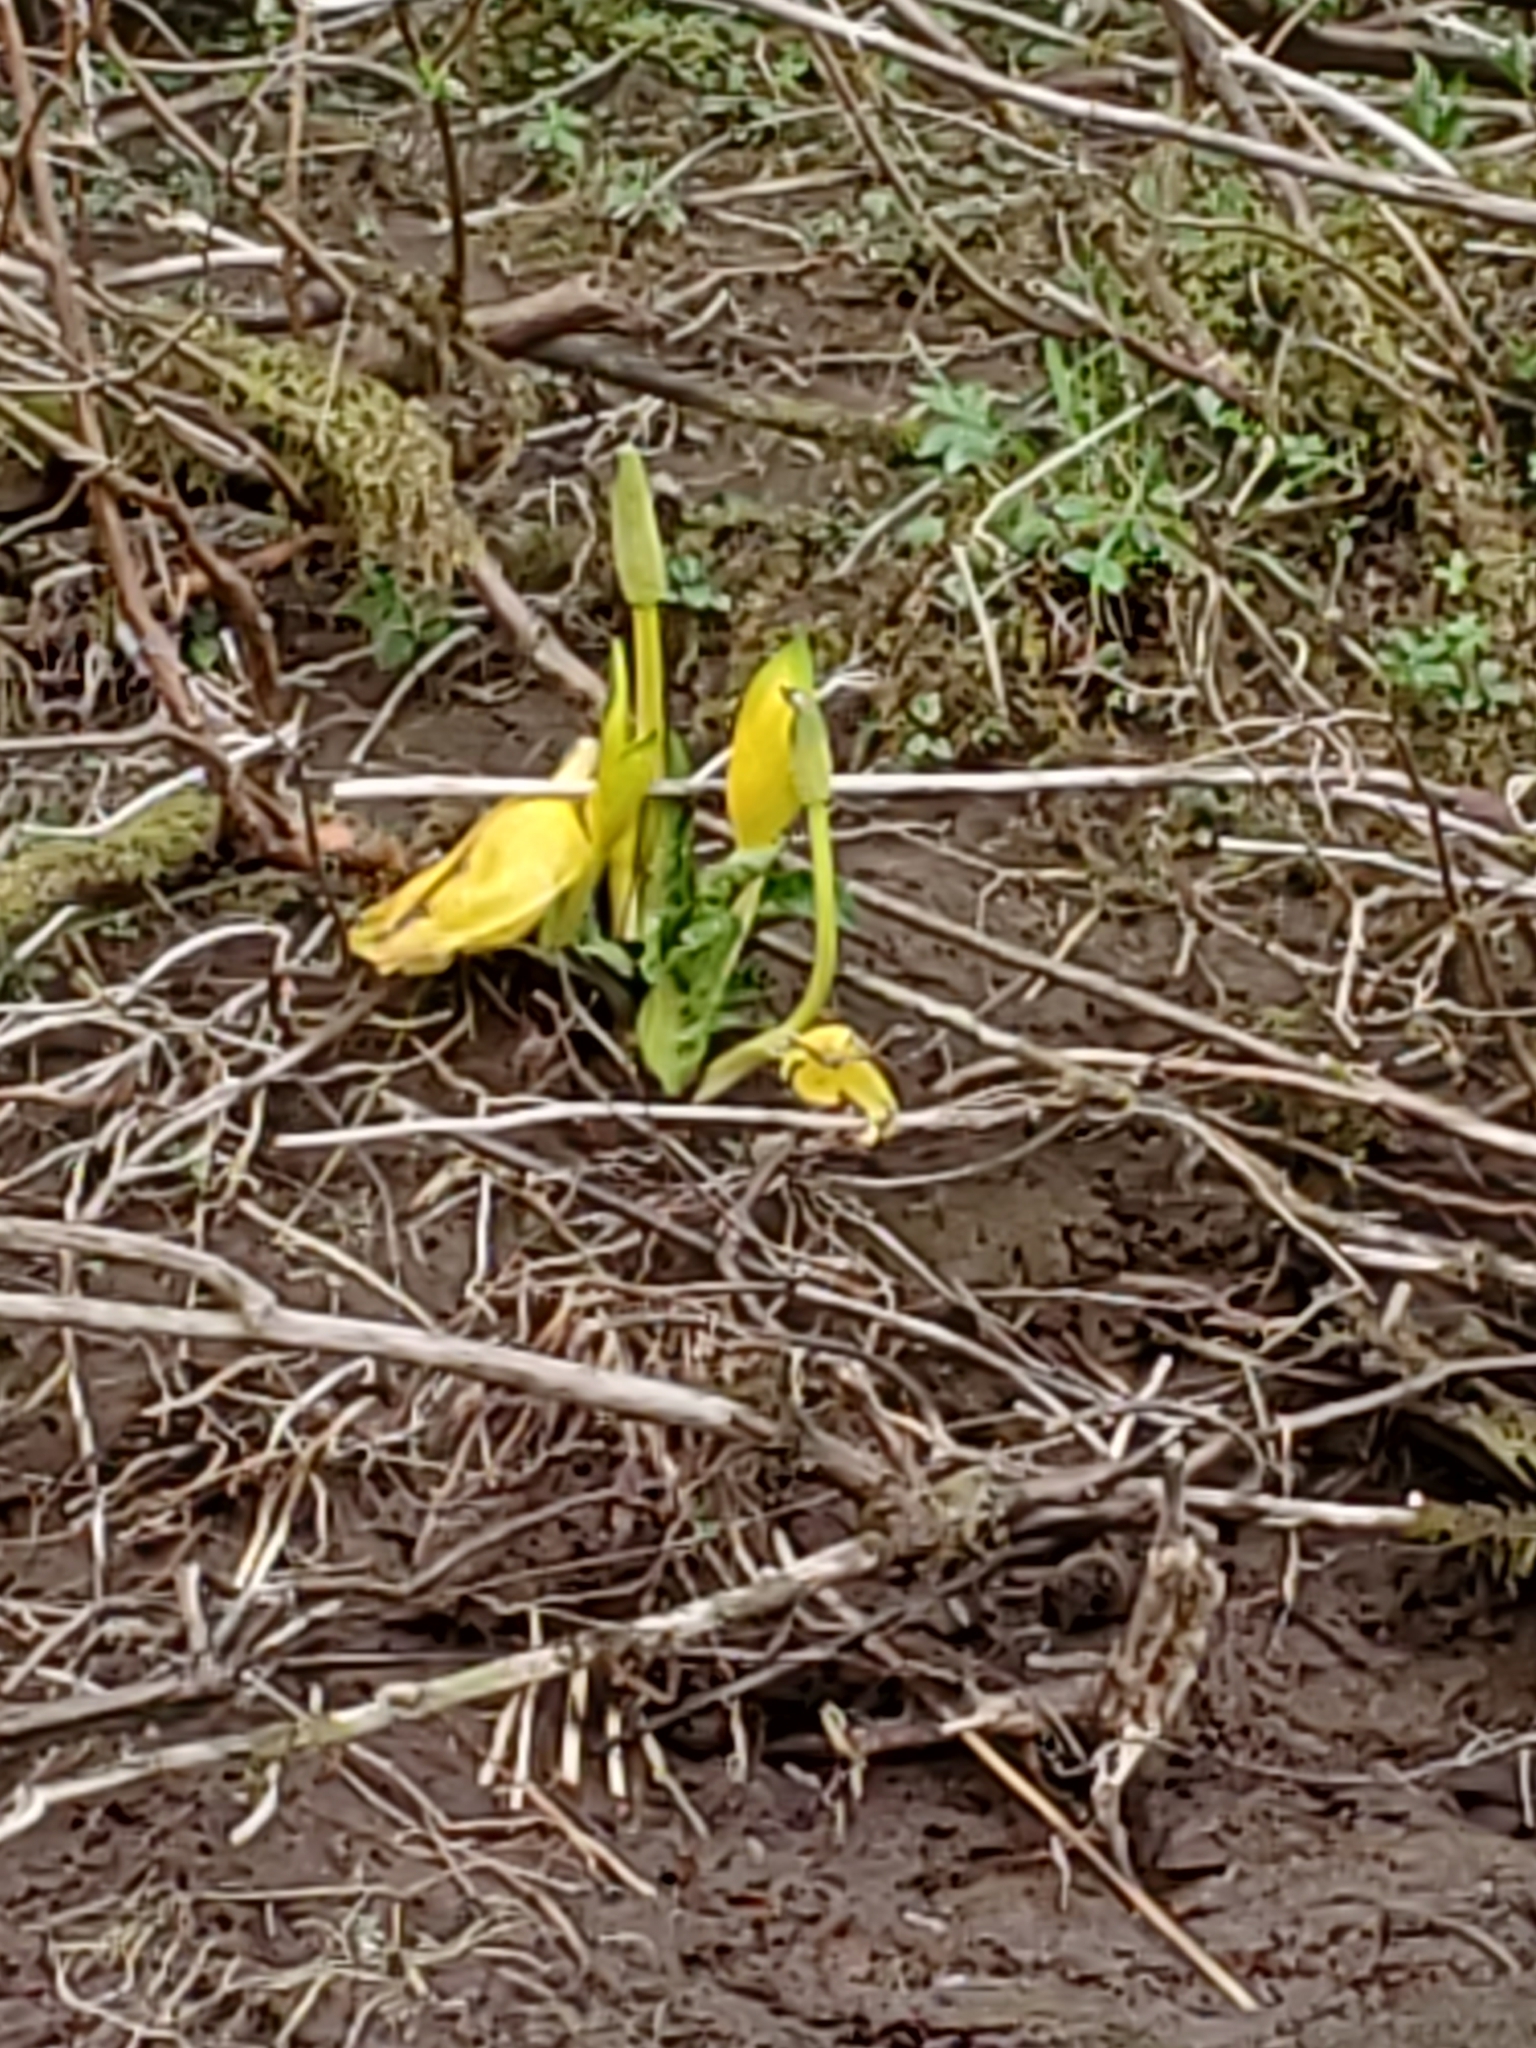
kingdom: Plantae
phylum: Tracheophyta
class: Liliopsida
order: Alismatales
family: Araceae
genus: Lysichiton
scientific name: Lysichiton americanus
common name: American skunk cabbage
